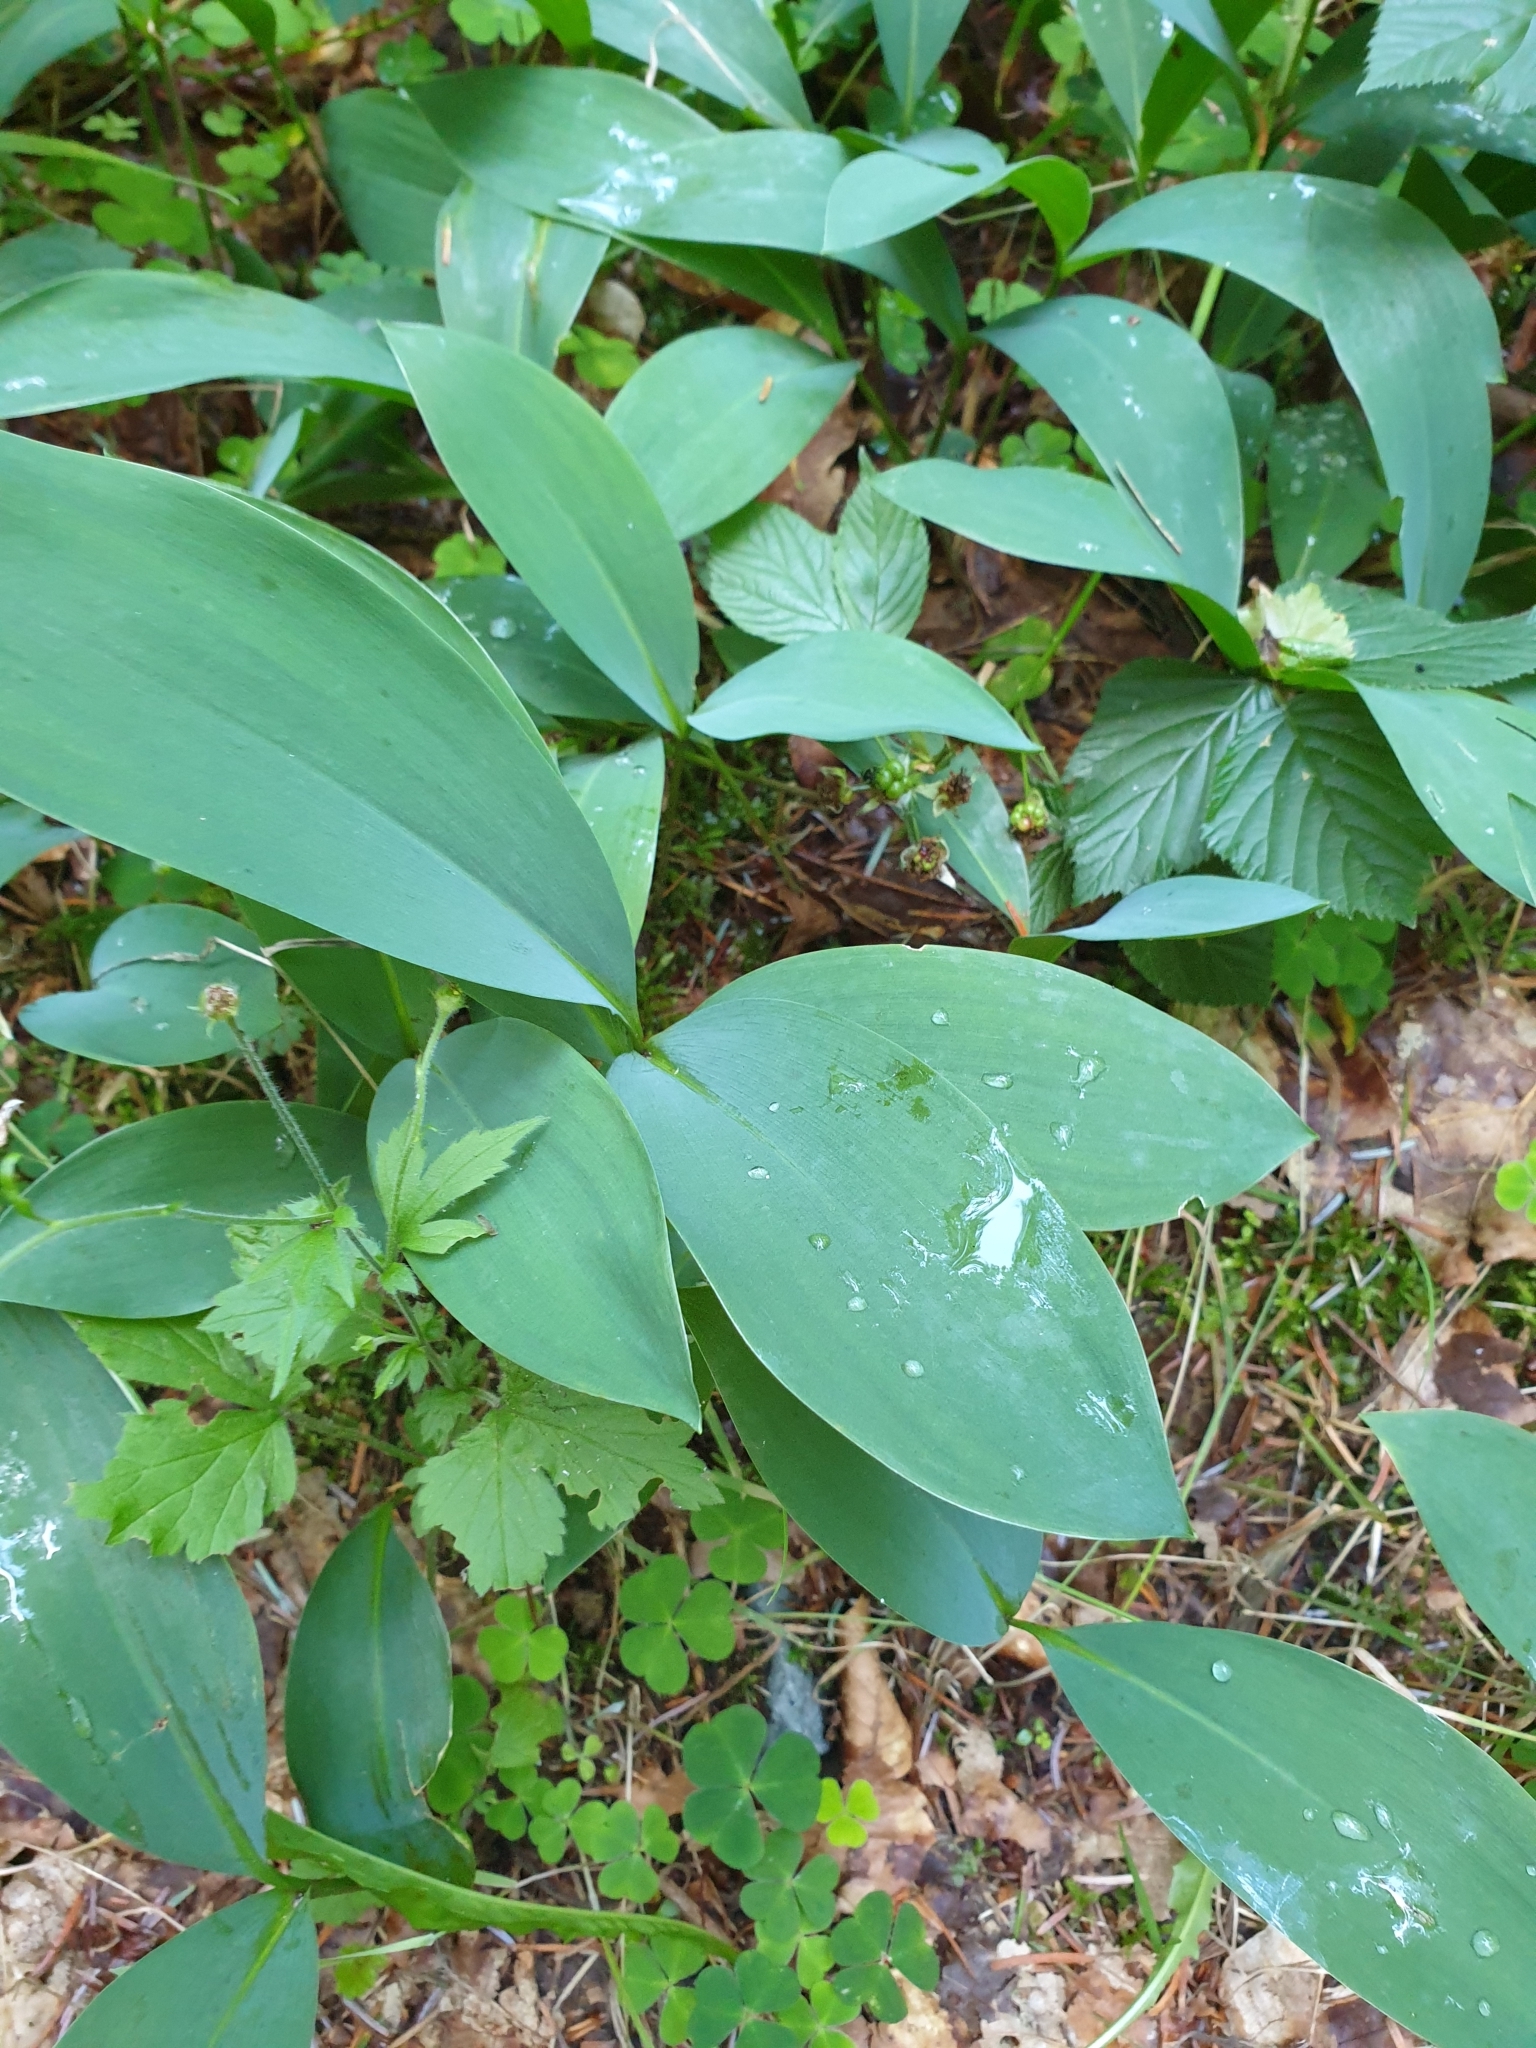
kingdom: Plantae
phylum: Tracheophyta
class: Liliopsida
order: Asparagales
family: Asparagaceae
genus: Convallaria
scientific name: Convallaria majalis
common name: Lily-of-the-valley
